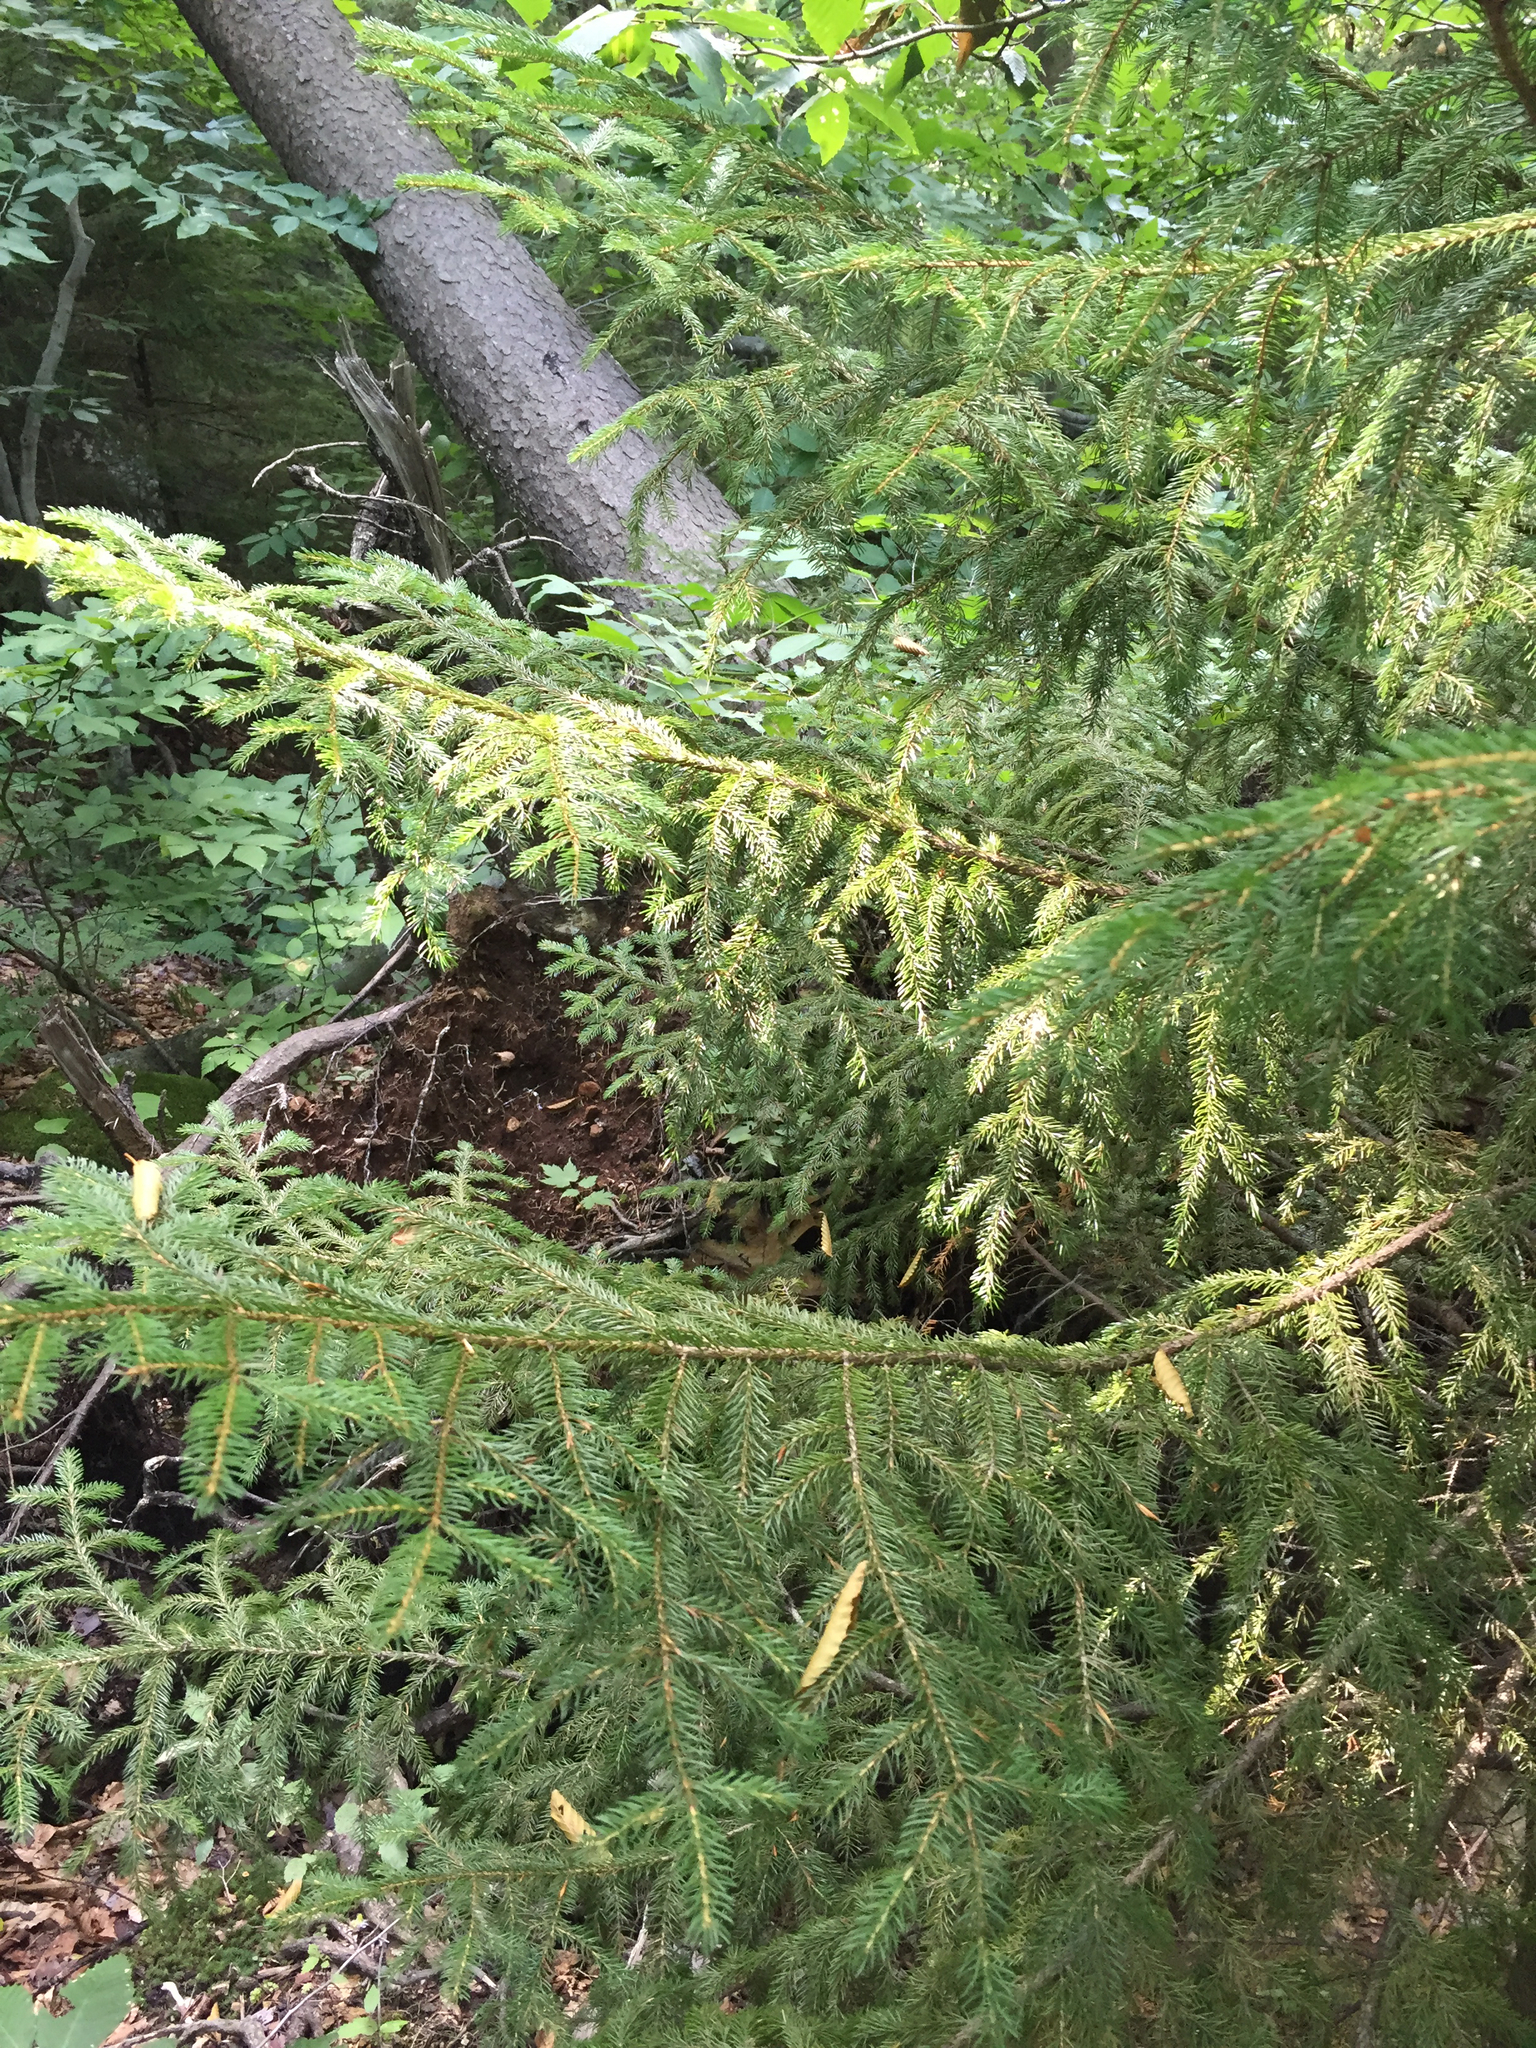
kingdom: Plantae
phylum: Tracheophyta
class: Pinopsida
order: Pinales
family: Pinaceae
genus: Picea
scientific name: Picea rubens
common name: Red spruce
